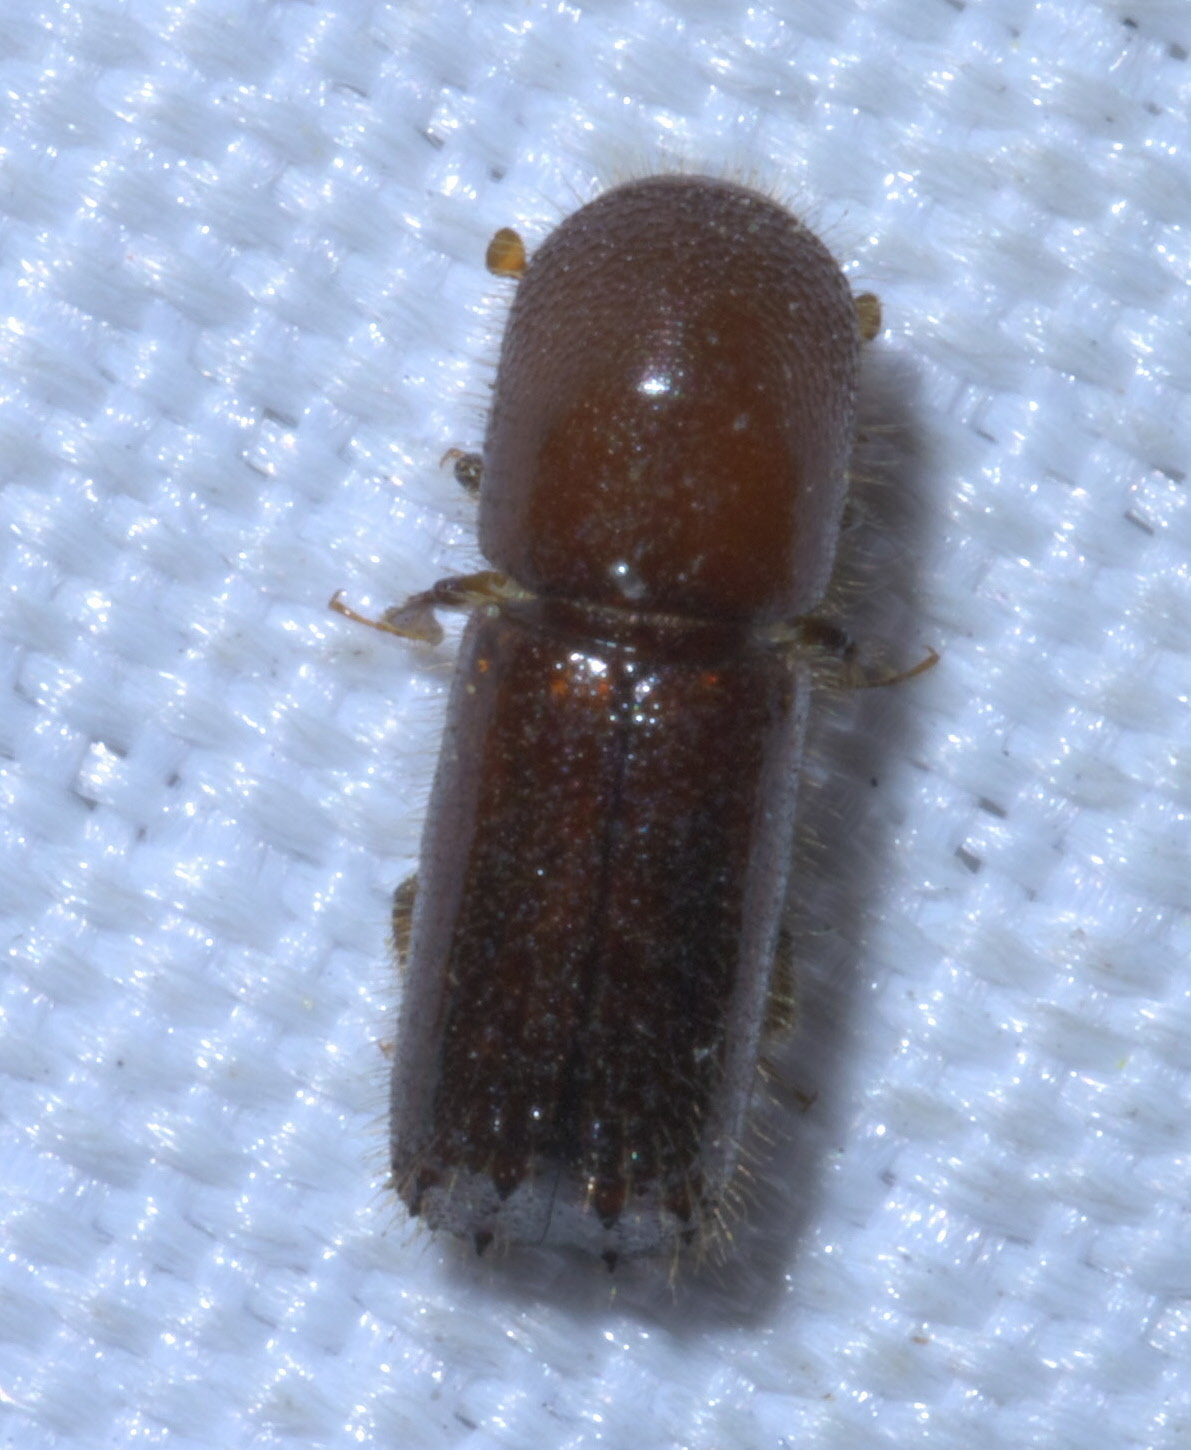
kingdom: Animalia
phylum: Arthropoda
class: Insecta
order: Coleoptera
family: Curculionidae
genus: Xyleborus
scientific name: Xyleborus celsus
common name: Weevil
